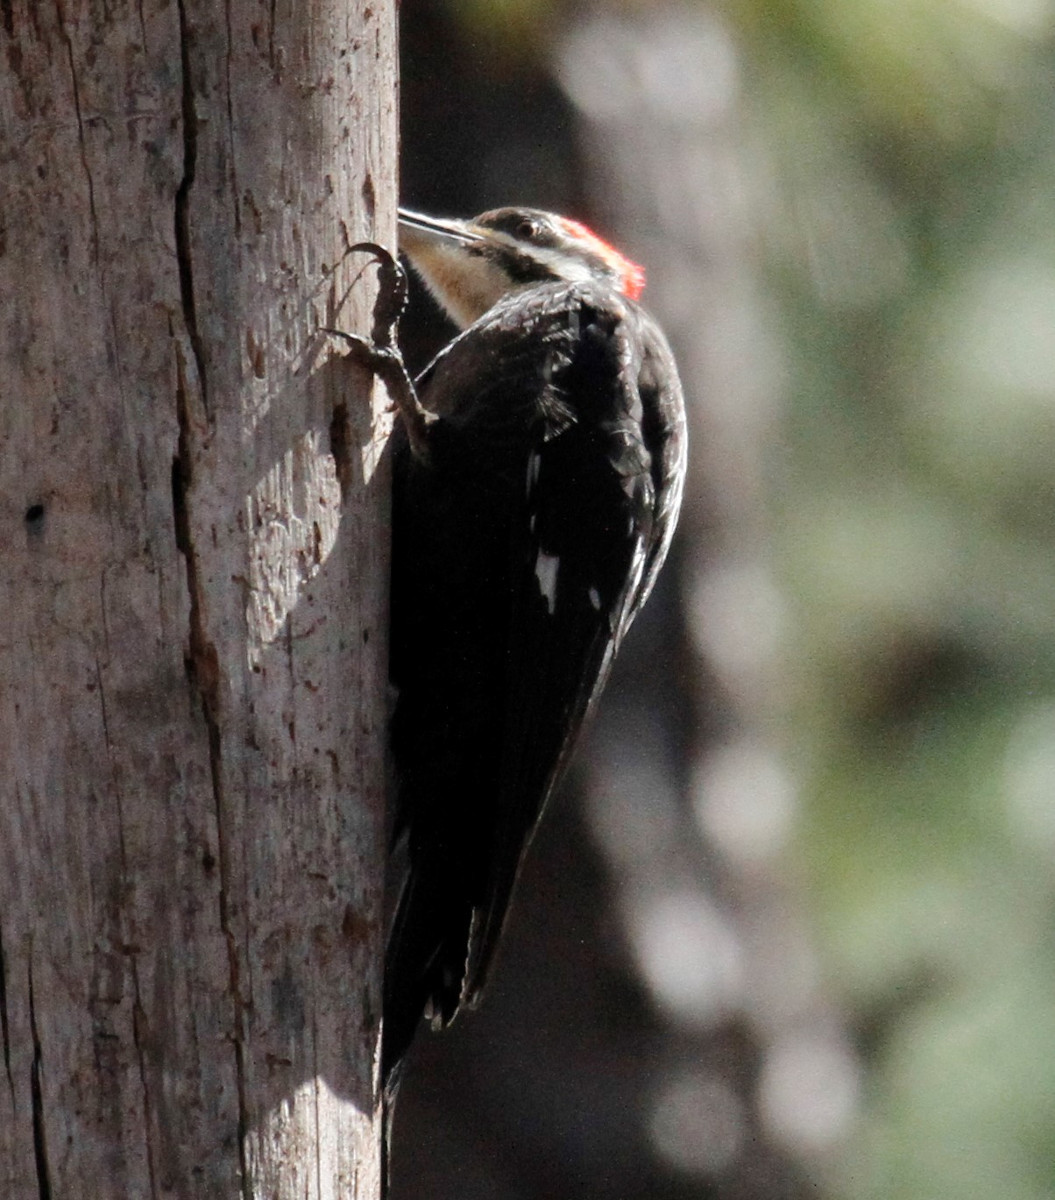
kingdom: Animalia
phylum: Chordata
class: Aves
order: Piciformes
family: Picidae
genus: Dryocopus
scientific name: Dryocopus pileatus
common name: Pileated woodpecker
